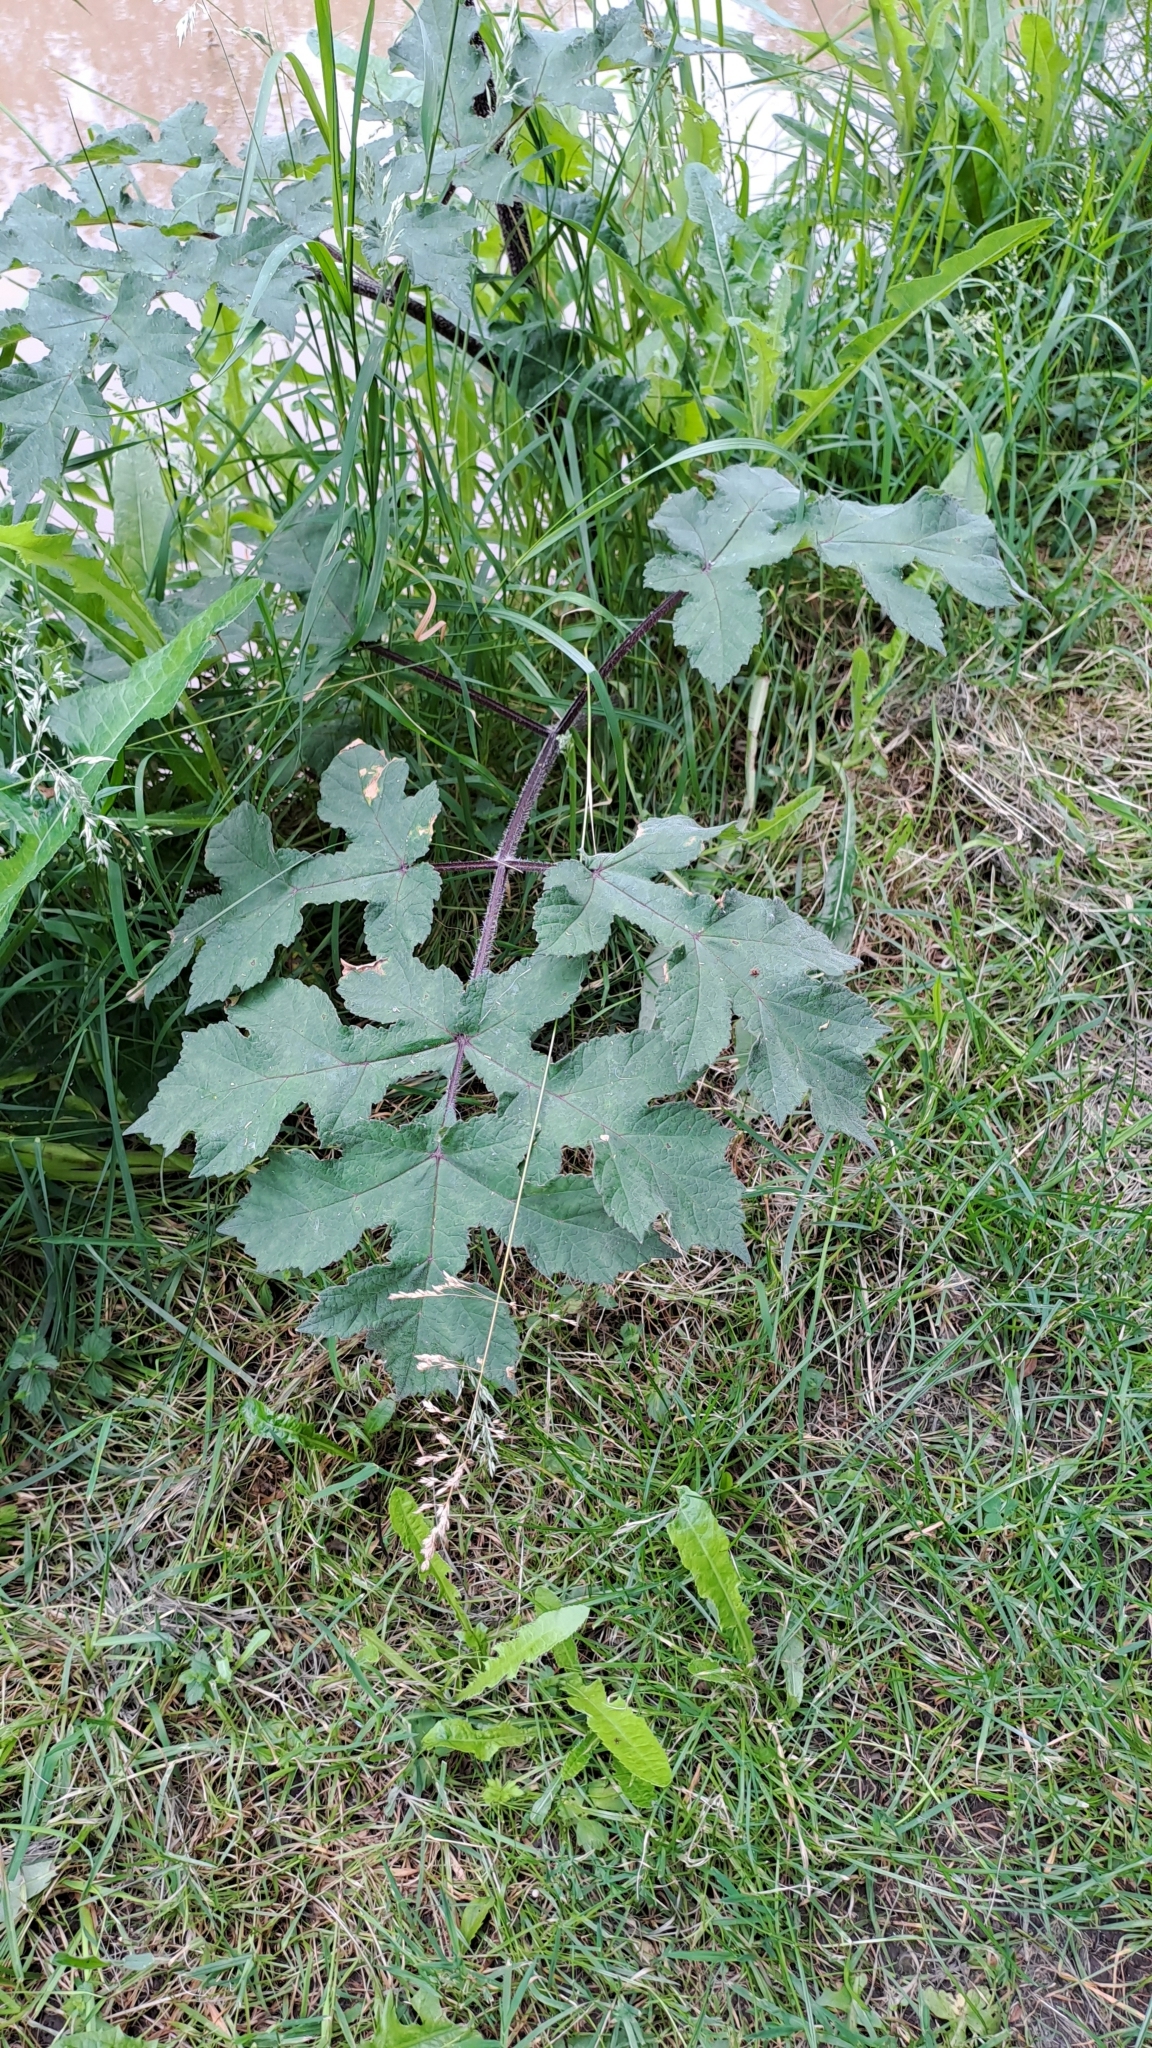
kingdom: Plantae
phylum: Tracheophyta
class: Magnoliopsida
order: Apiales
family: Apiaceae
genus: Heracleum
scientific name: Heracleum sphondylium
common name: Hogweed
